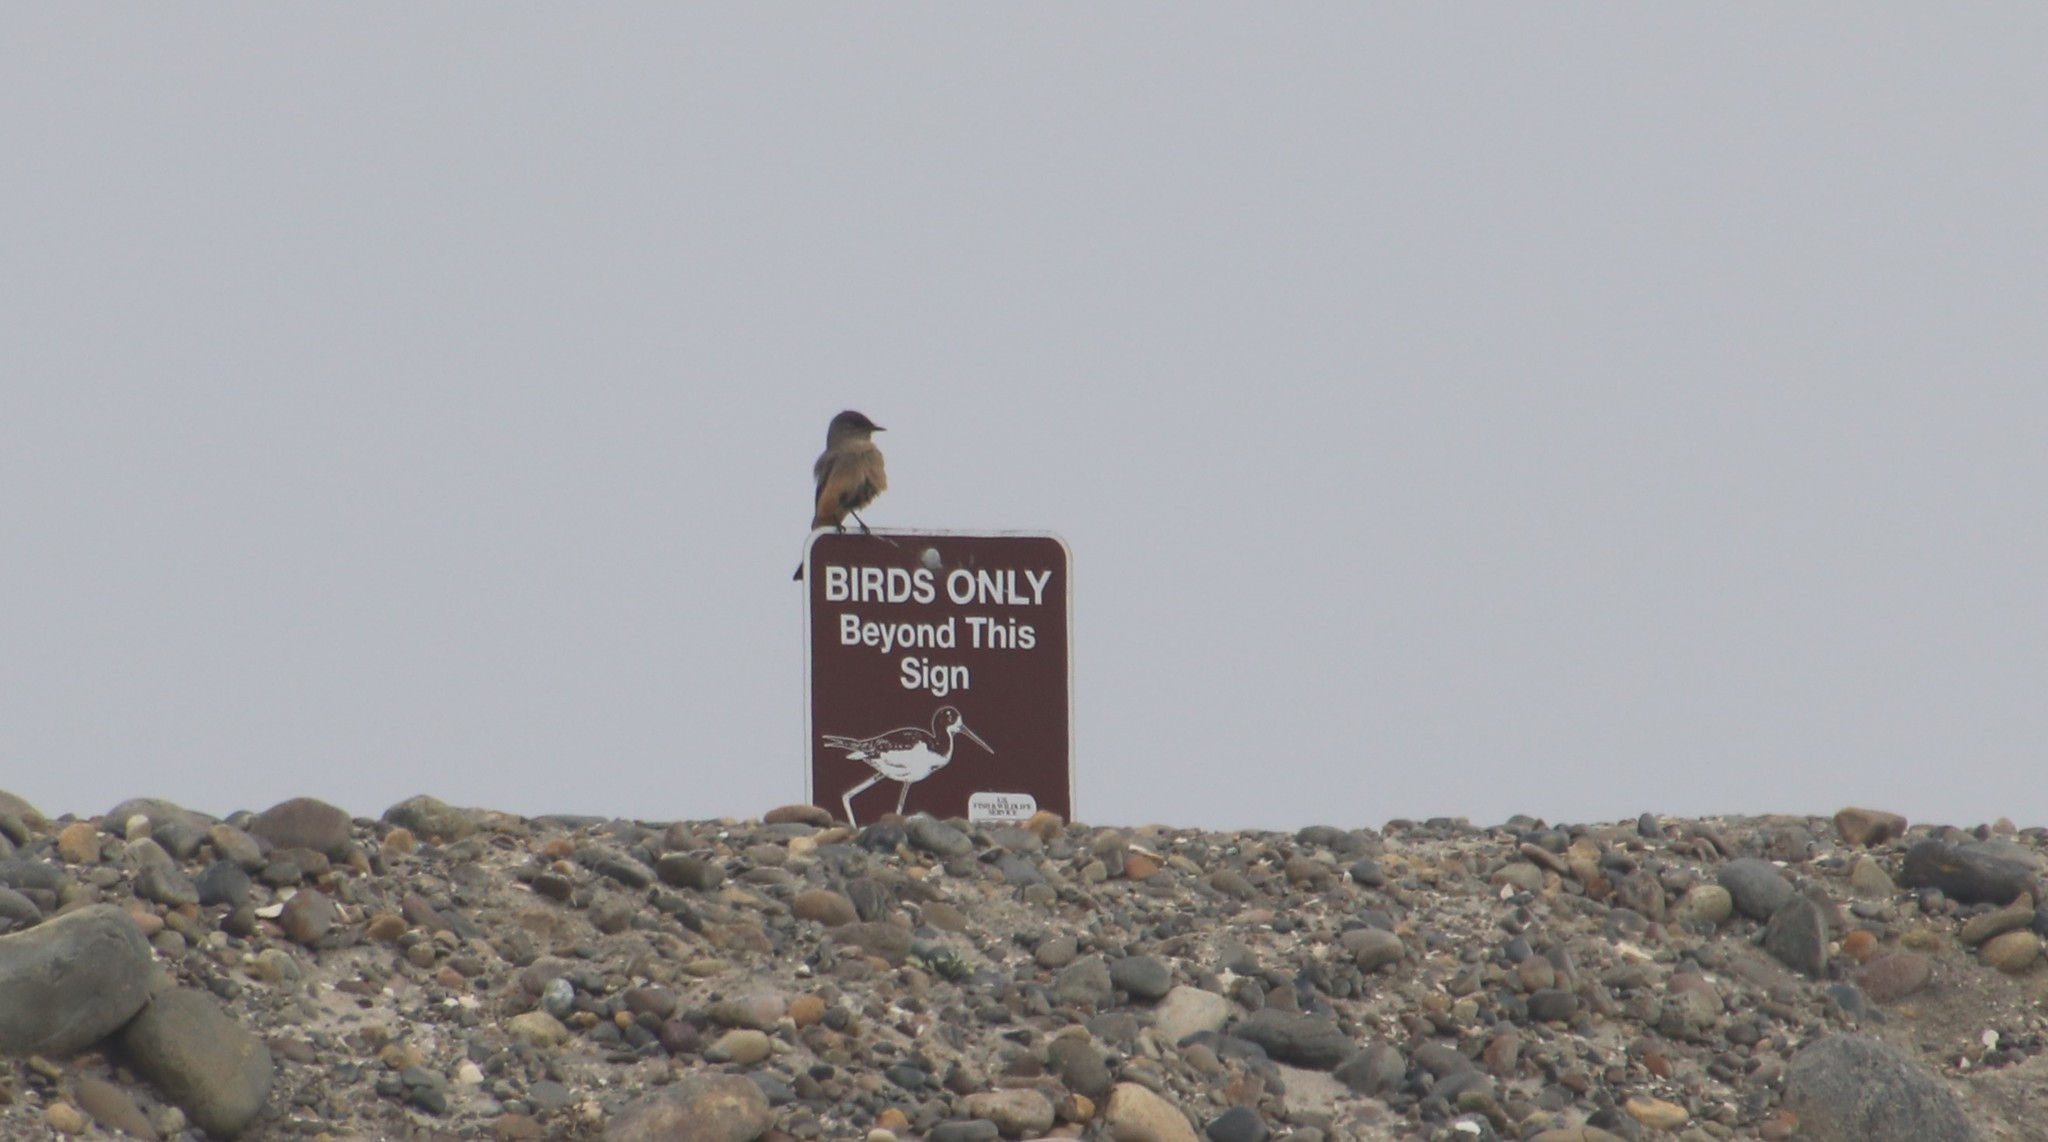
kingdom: Animalia
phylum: Chordata
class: Aves
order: Passeriformes
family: Tyrannidae
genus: Sayornis
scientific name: Sayornis saya
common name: Say's phoebe
